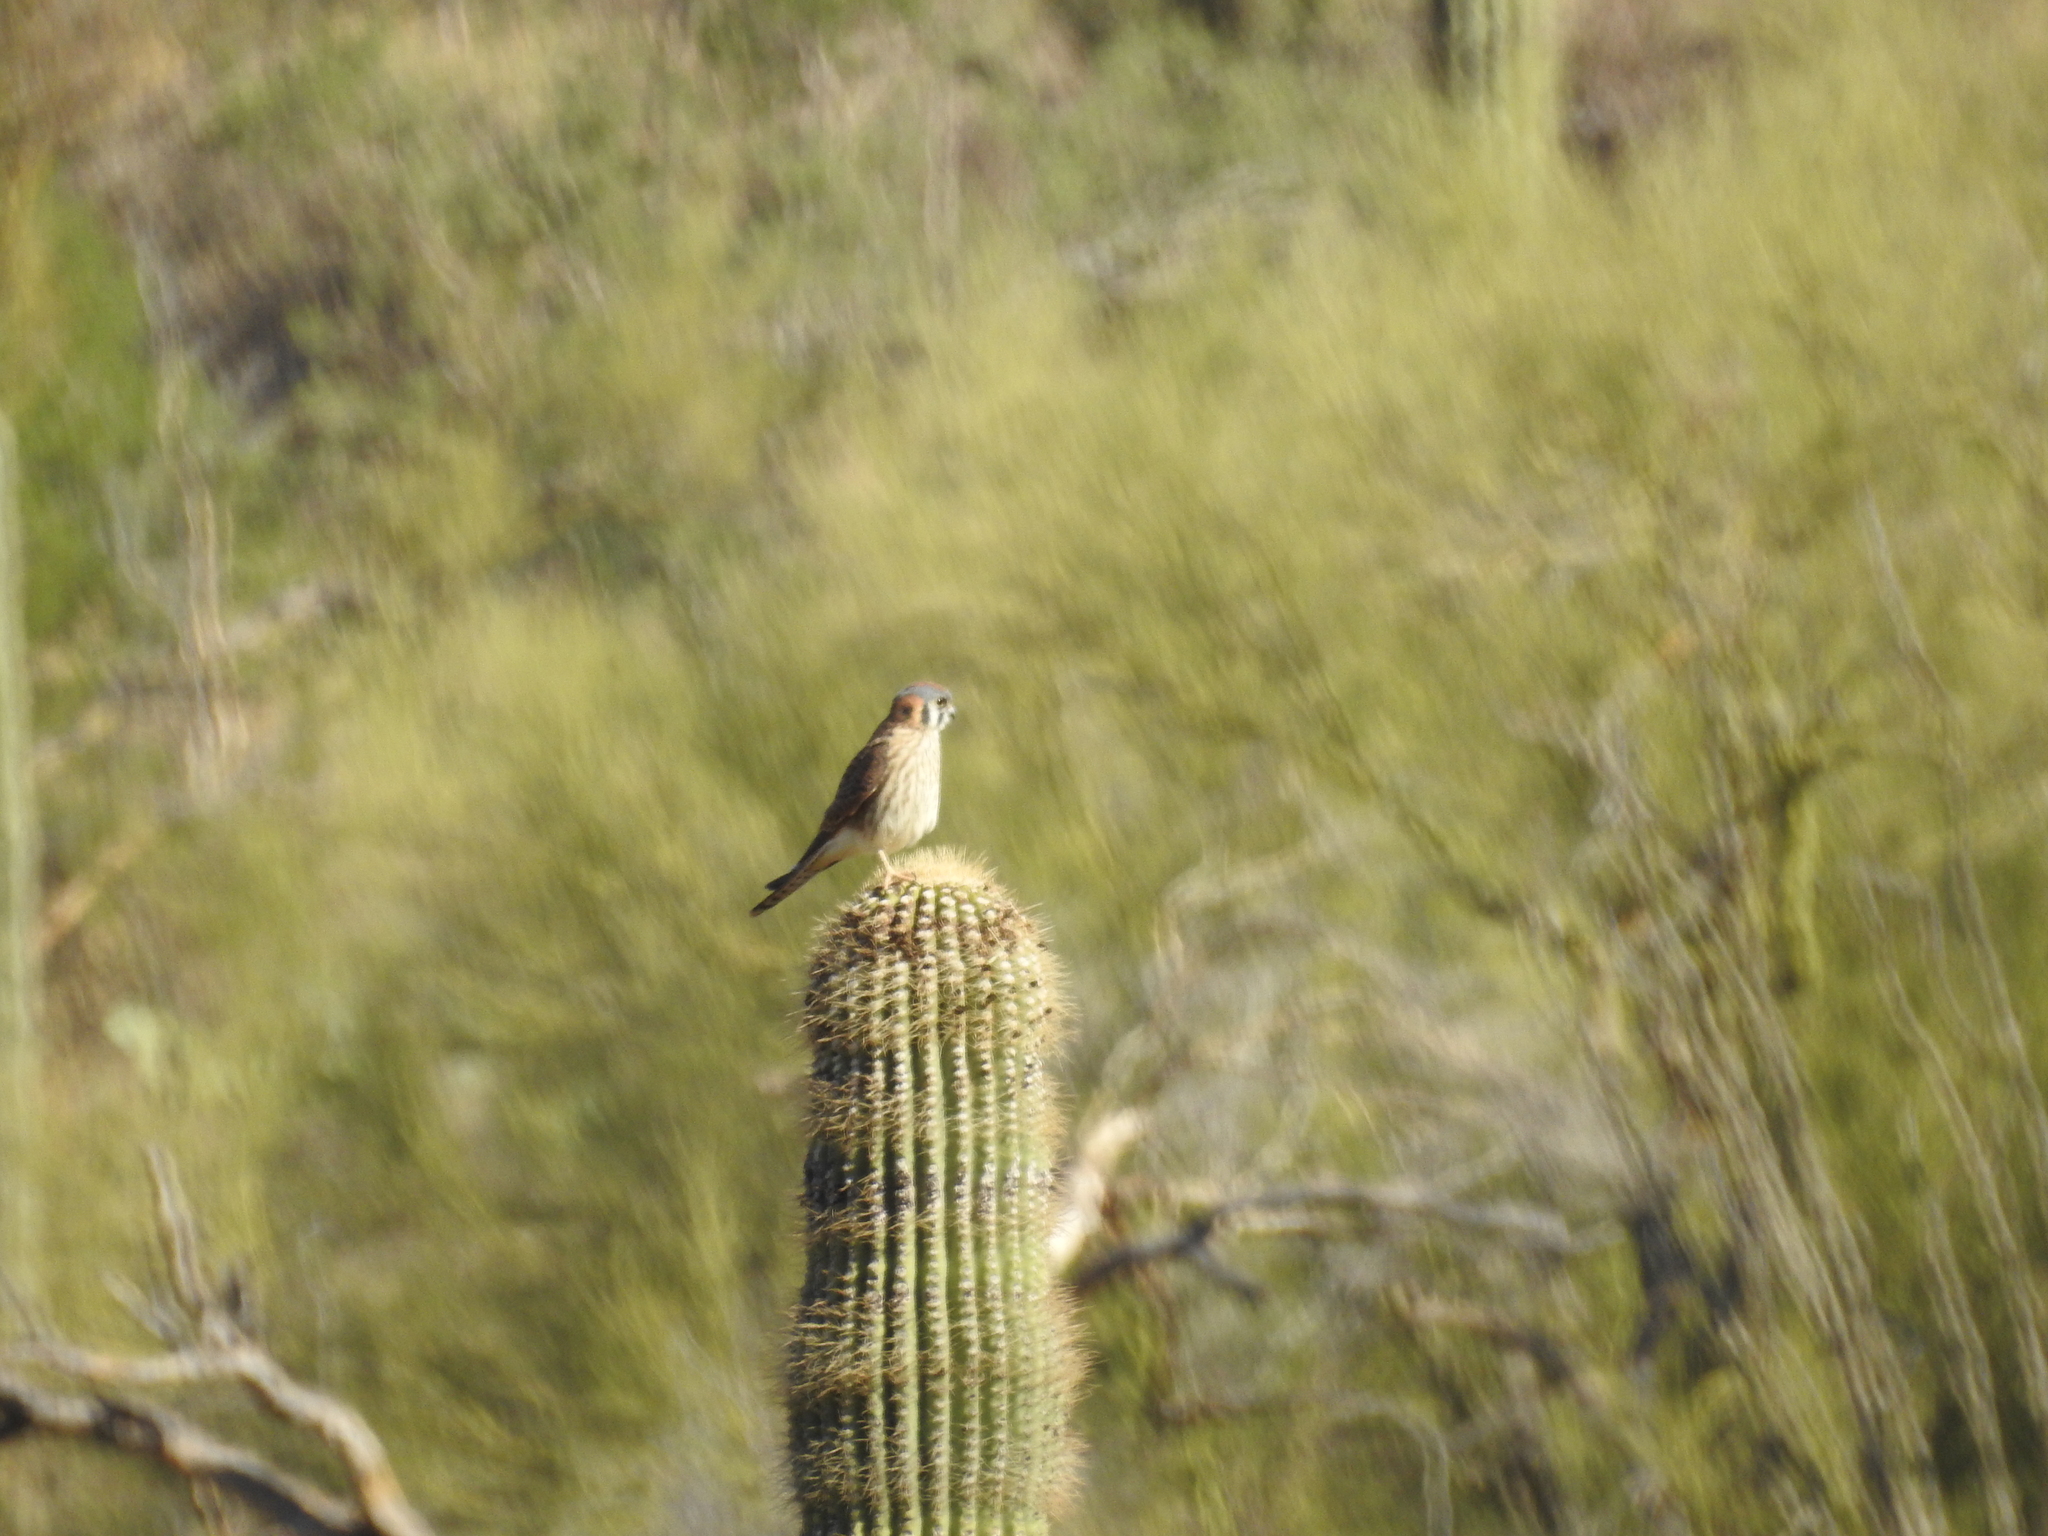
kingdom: Animalia
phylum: Chordata
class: Aves
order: Falconiformes
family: Falconidae
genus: Falco
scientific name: Falco sparverius
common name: American kestrel
